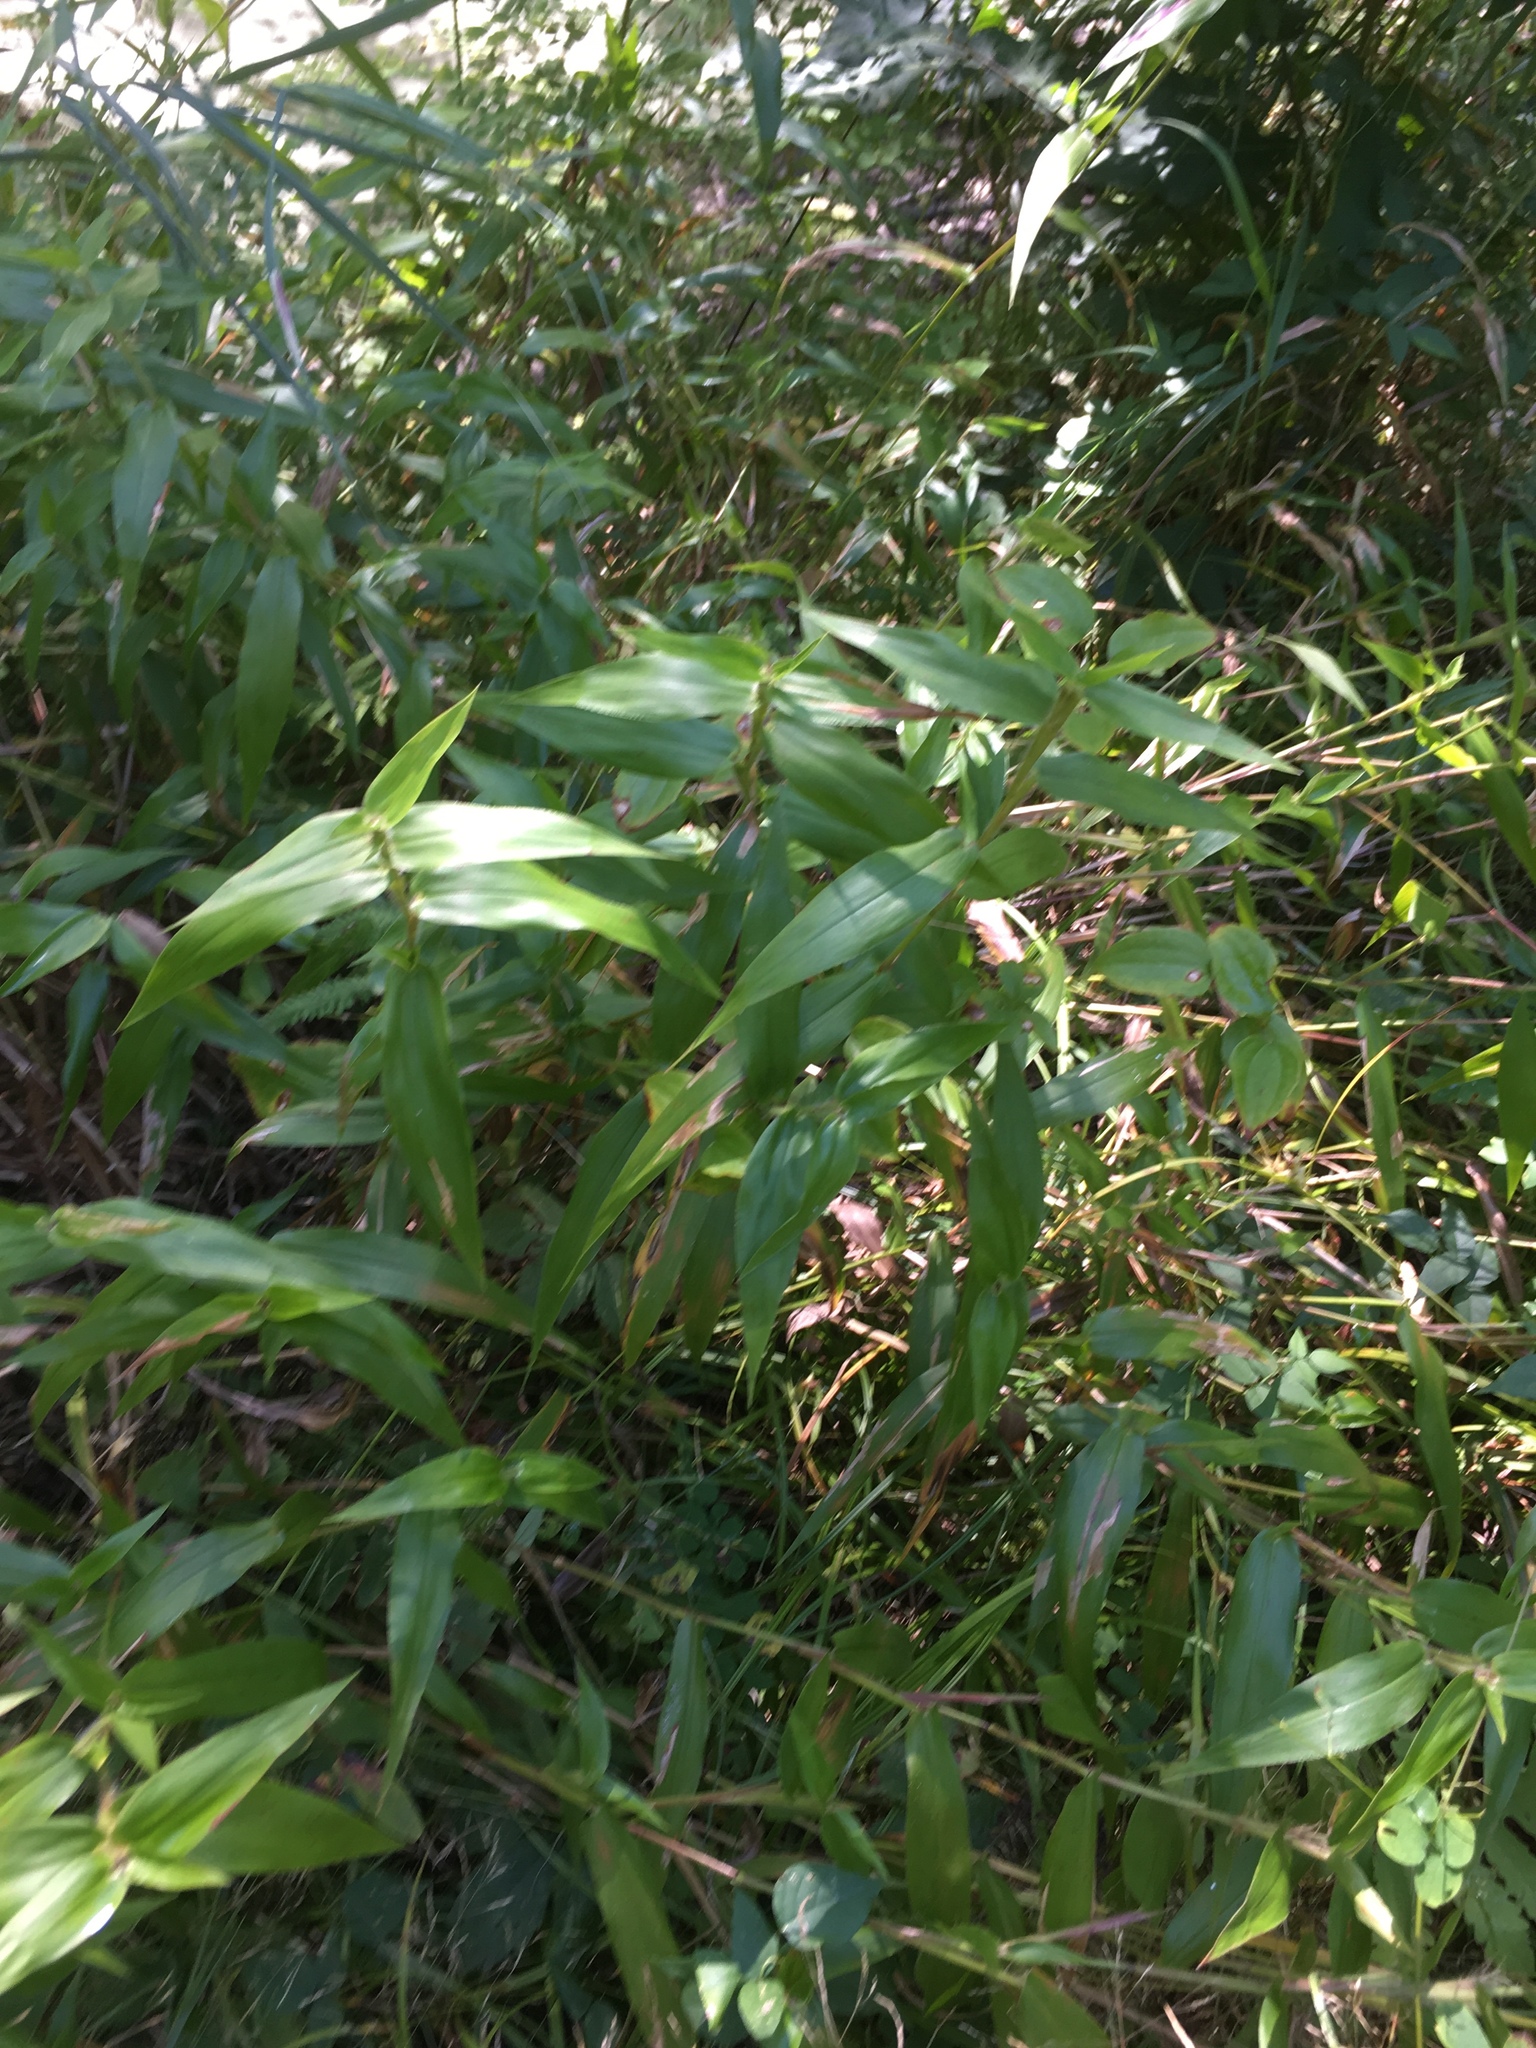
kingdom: Plantae
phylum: Tracheophyta
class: Liliopsida
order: Poales
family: Poaceae
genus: Dichanthelium
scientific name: Dichanthelium clandestinum
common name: Deer-tongue grass
